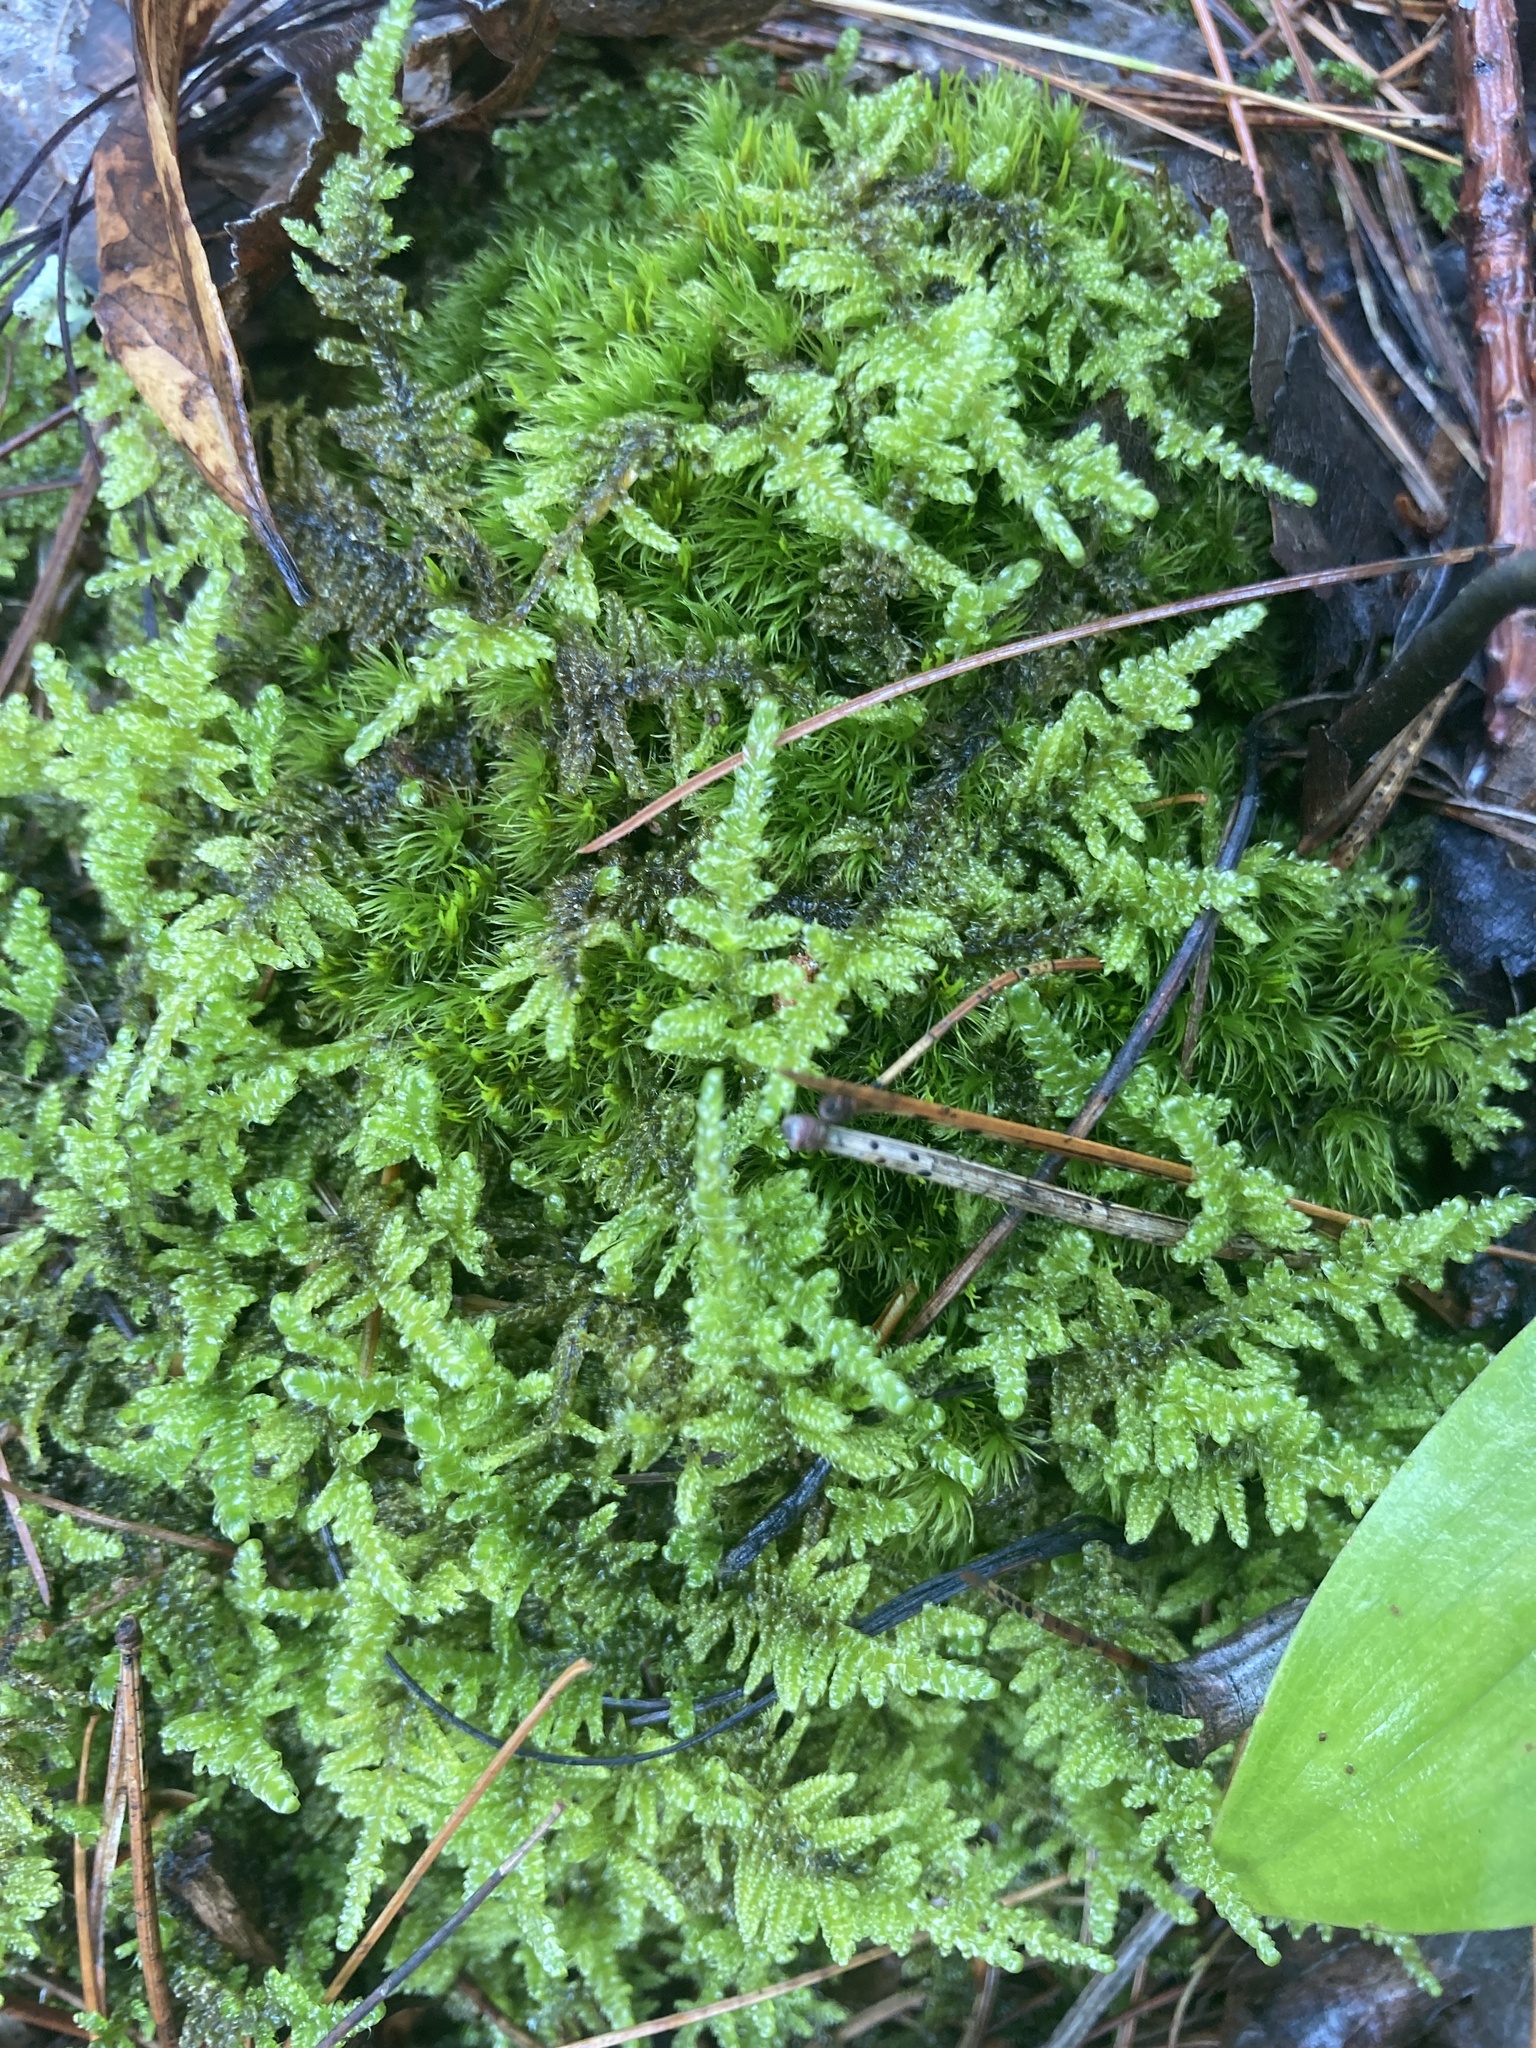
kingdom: Plantae
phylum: Bryophyta
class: Bryopsida
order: Hypnales
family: Callicladiaceae
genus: Callicladium
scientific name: Callicladium imponens
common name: Brocade moss
